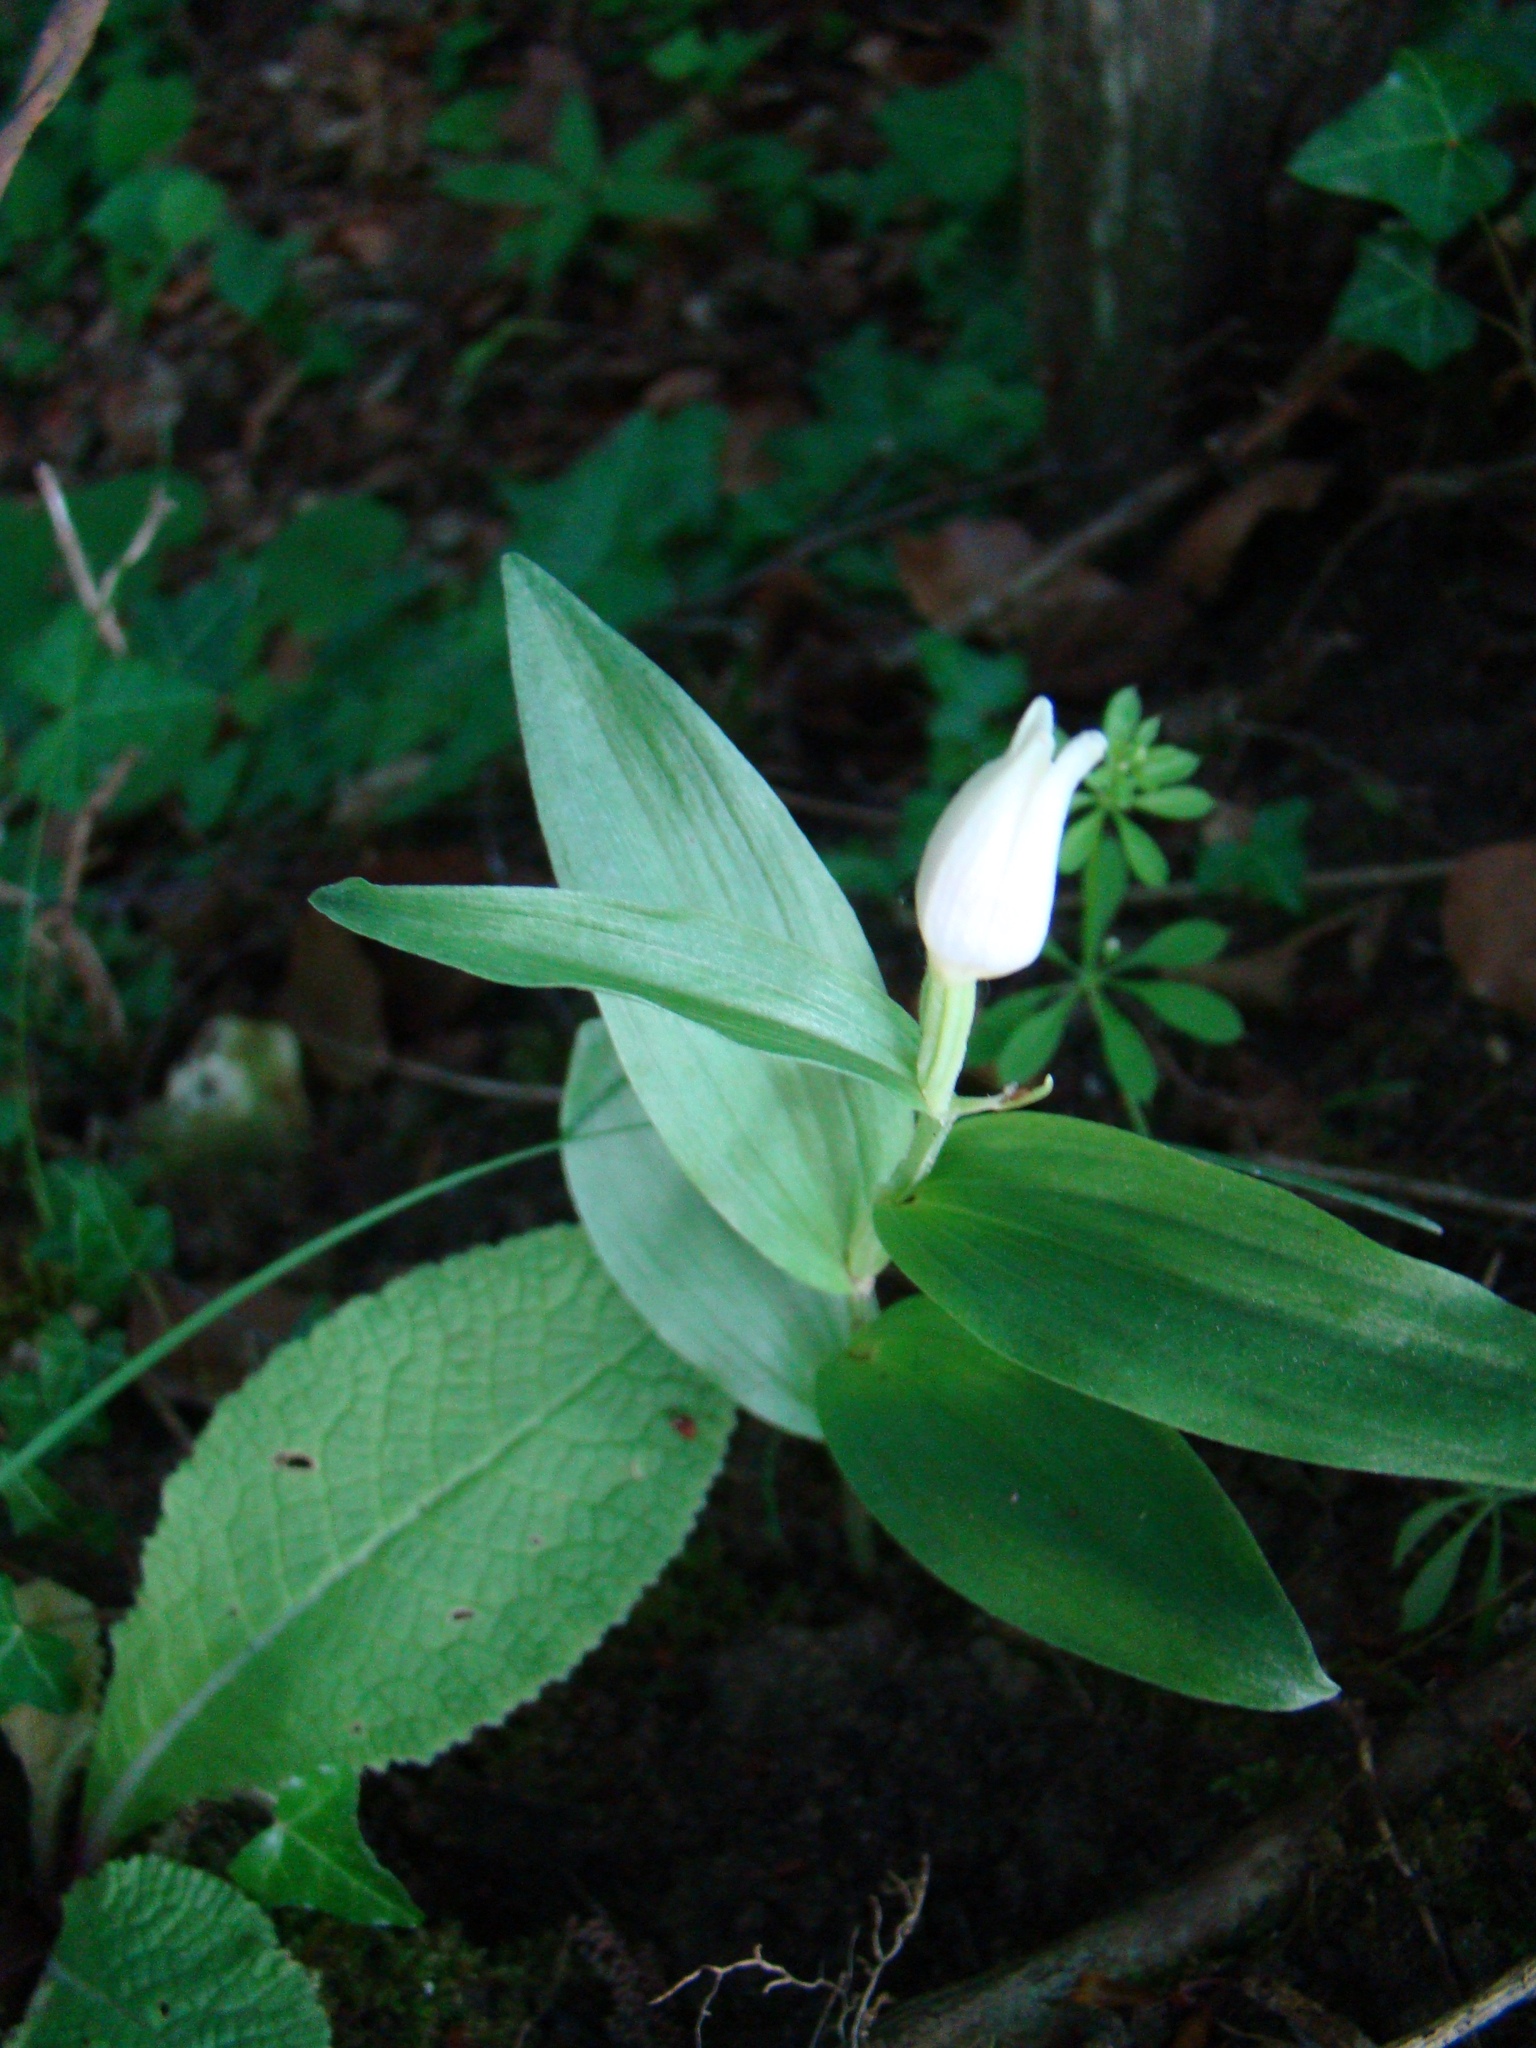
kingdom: Plantae
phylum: Tracheophyta
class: Liliopsida
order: Asparagales
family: Orchidaceae
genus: Cephalanthera
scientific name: Cephalanthera damasonium
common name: White helleborine
